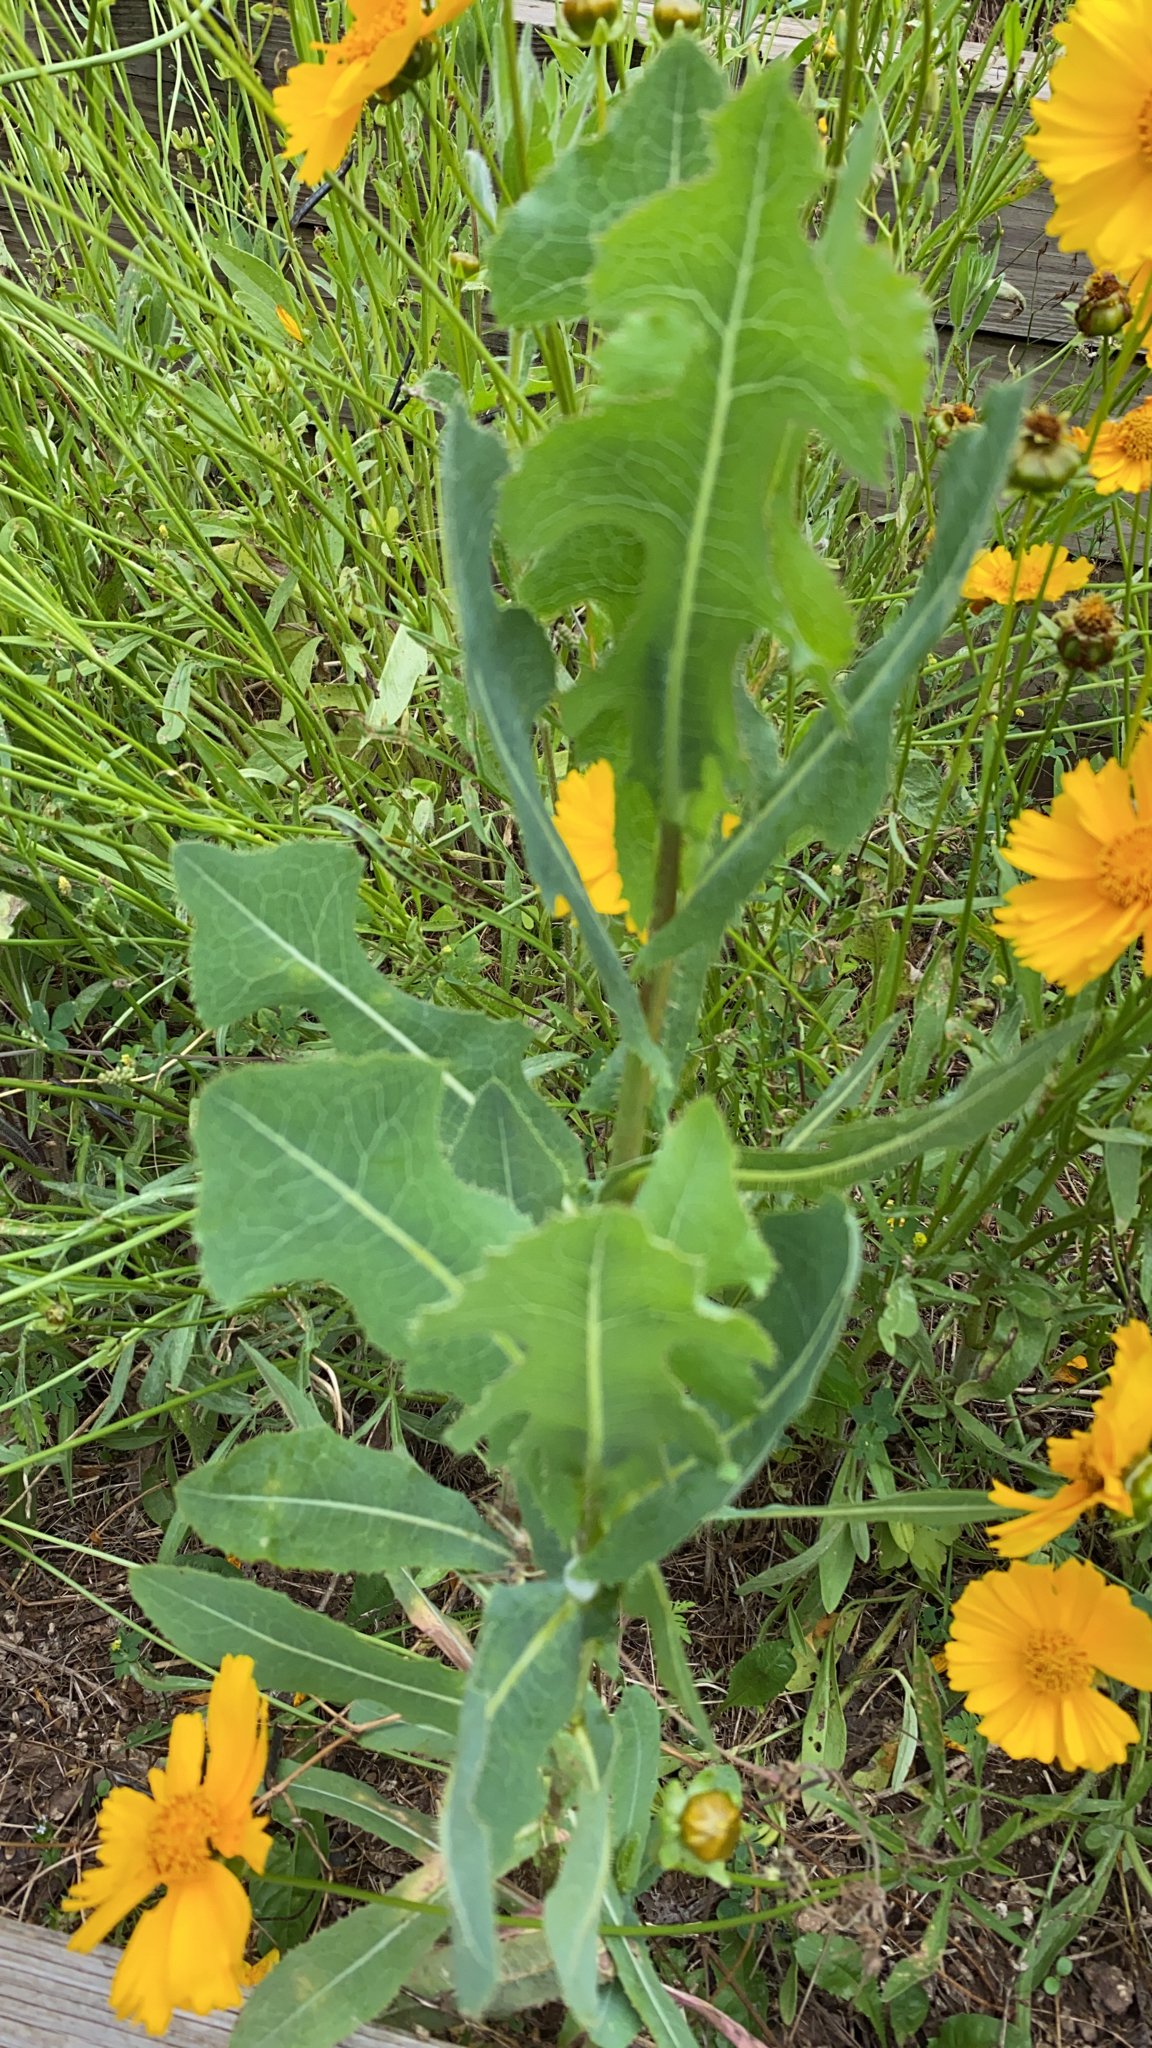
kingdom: Plantae
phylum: Tracheophyta
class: Magnoliopsida
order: Asterales
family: Asteraceae
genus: Lactuca
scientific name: Lactuca serriola
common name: Prickly lettuce
